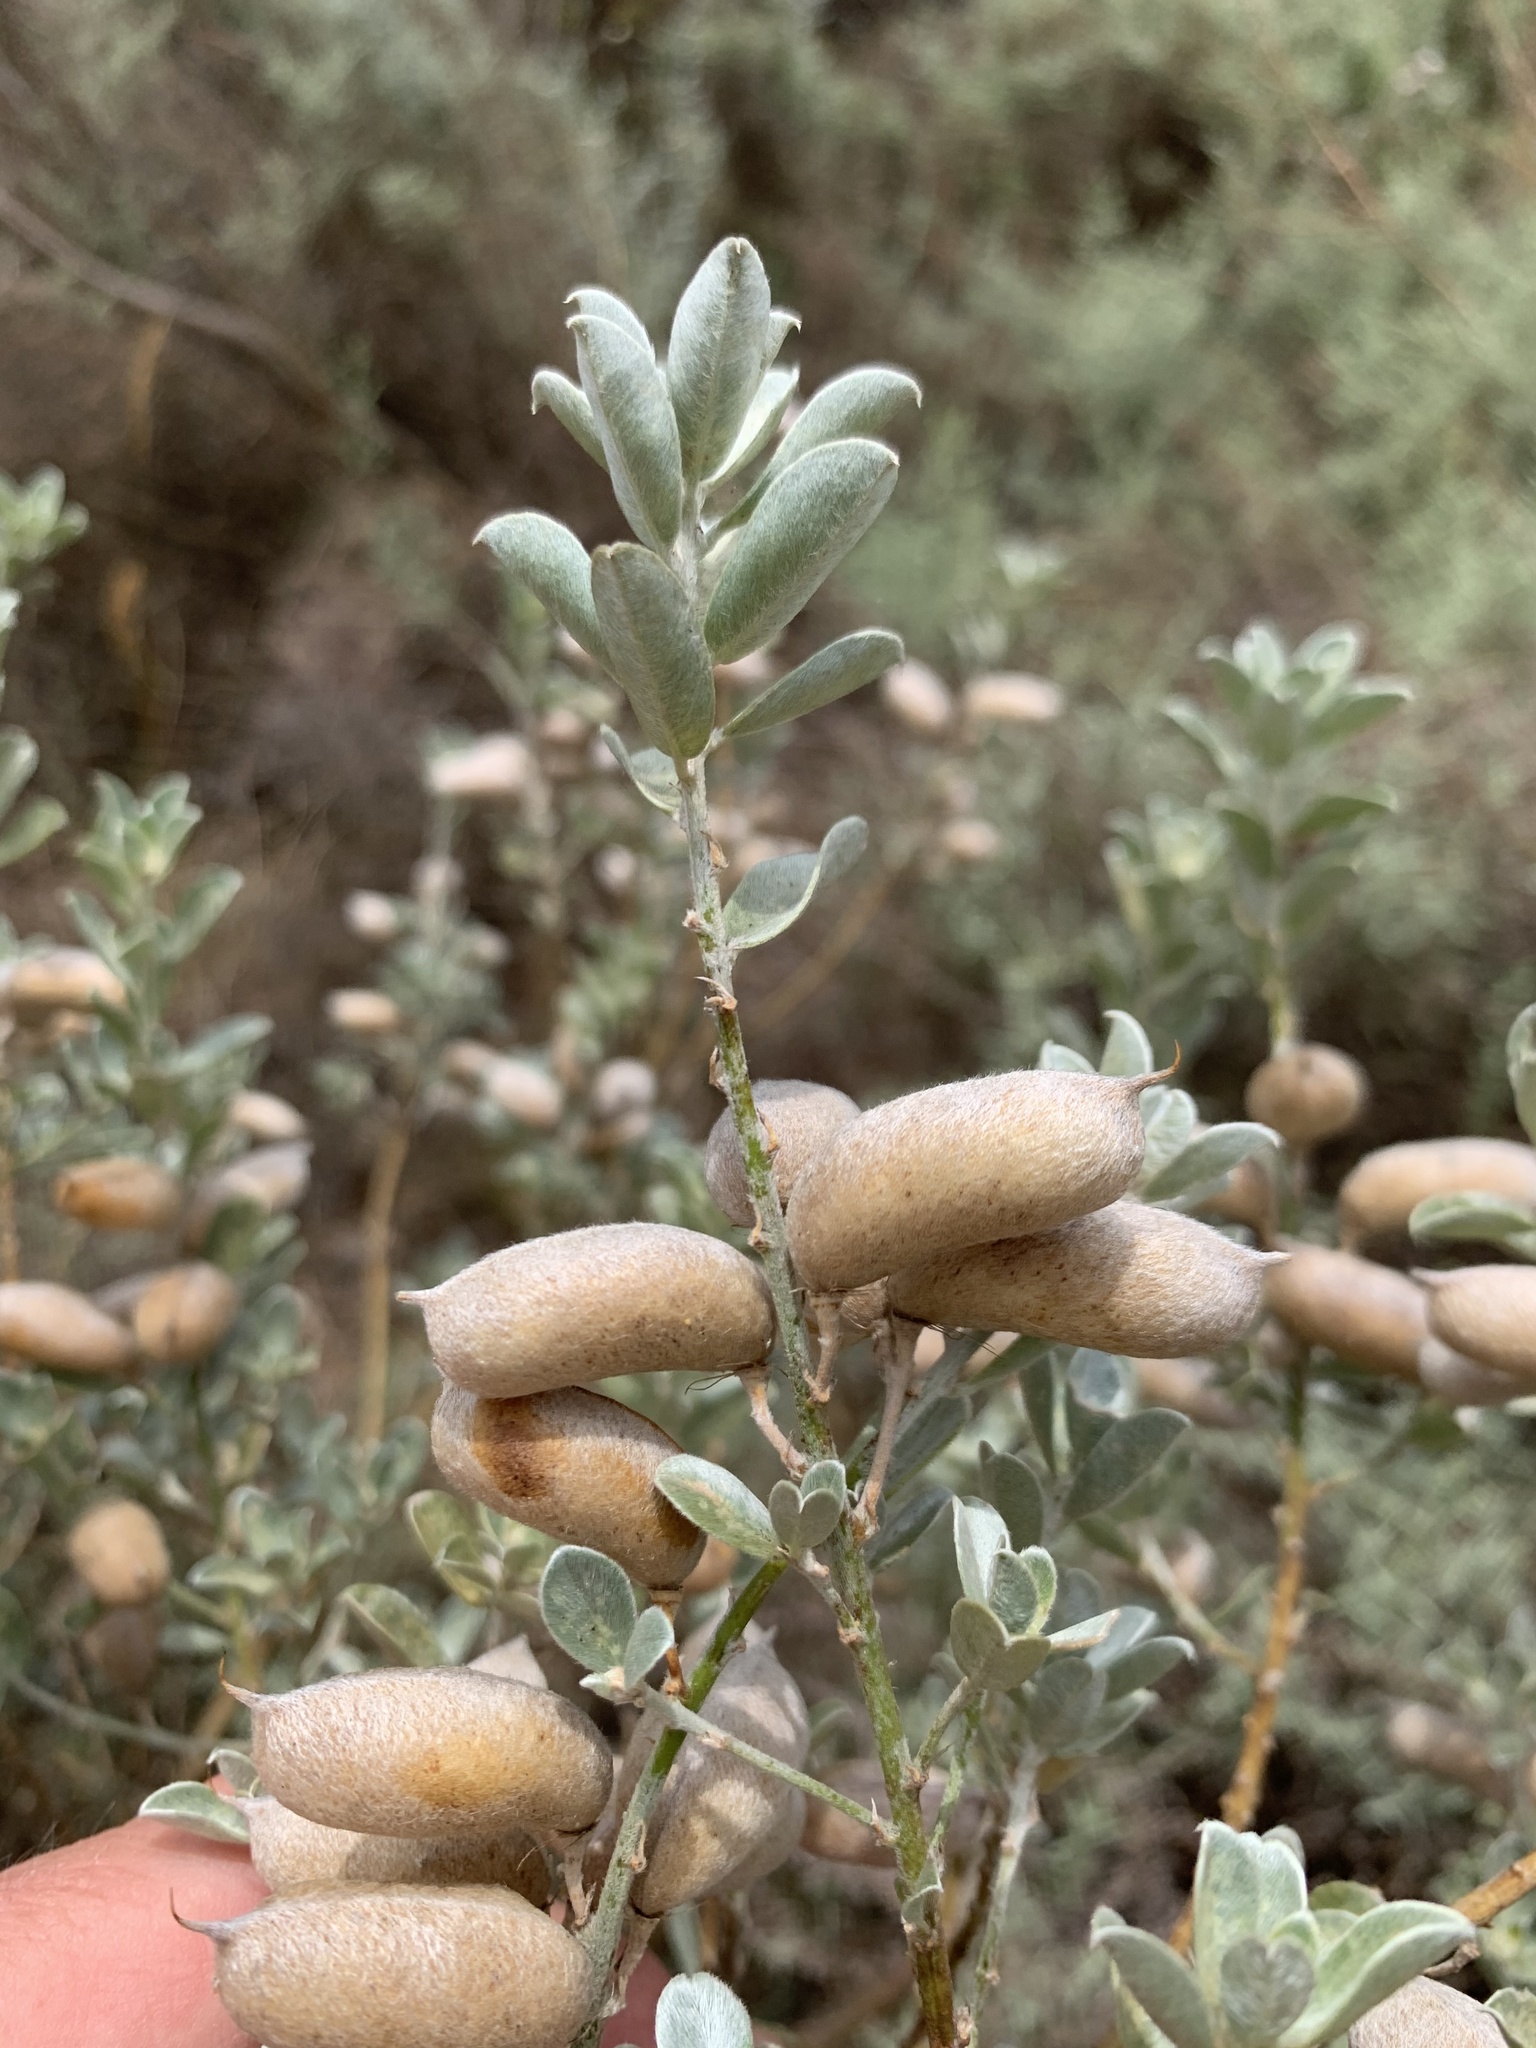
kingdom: Plantae
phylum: Tracheophyta
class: Magnoliopsida
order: Fabales
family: Fabaceae
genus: Podalyria
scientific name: Podalyria sericea
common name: Silver podalyria
